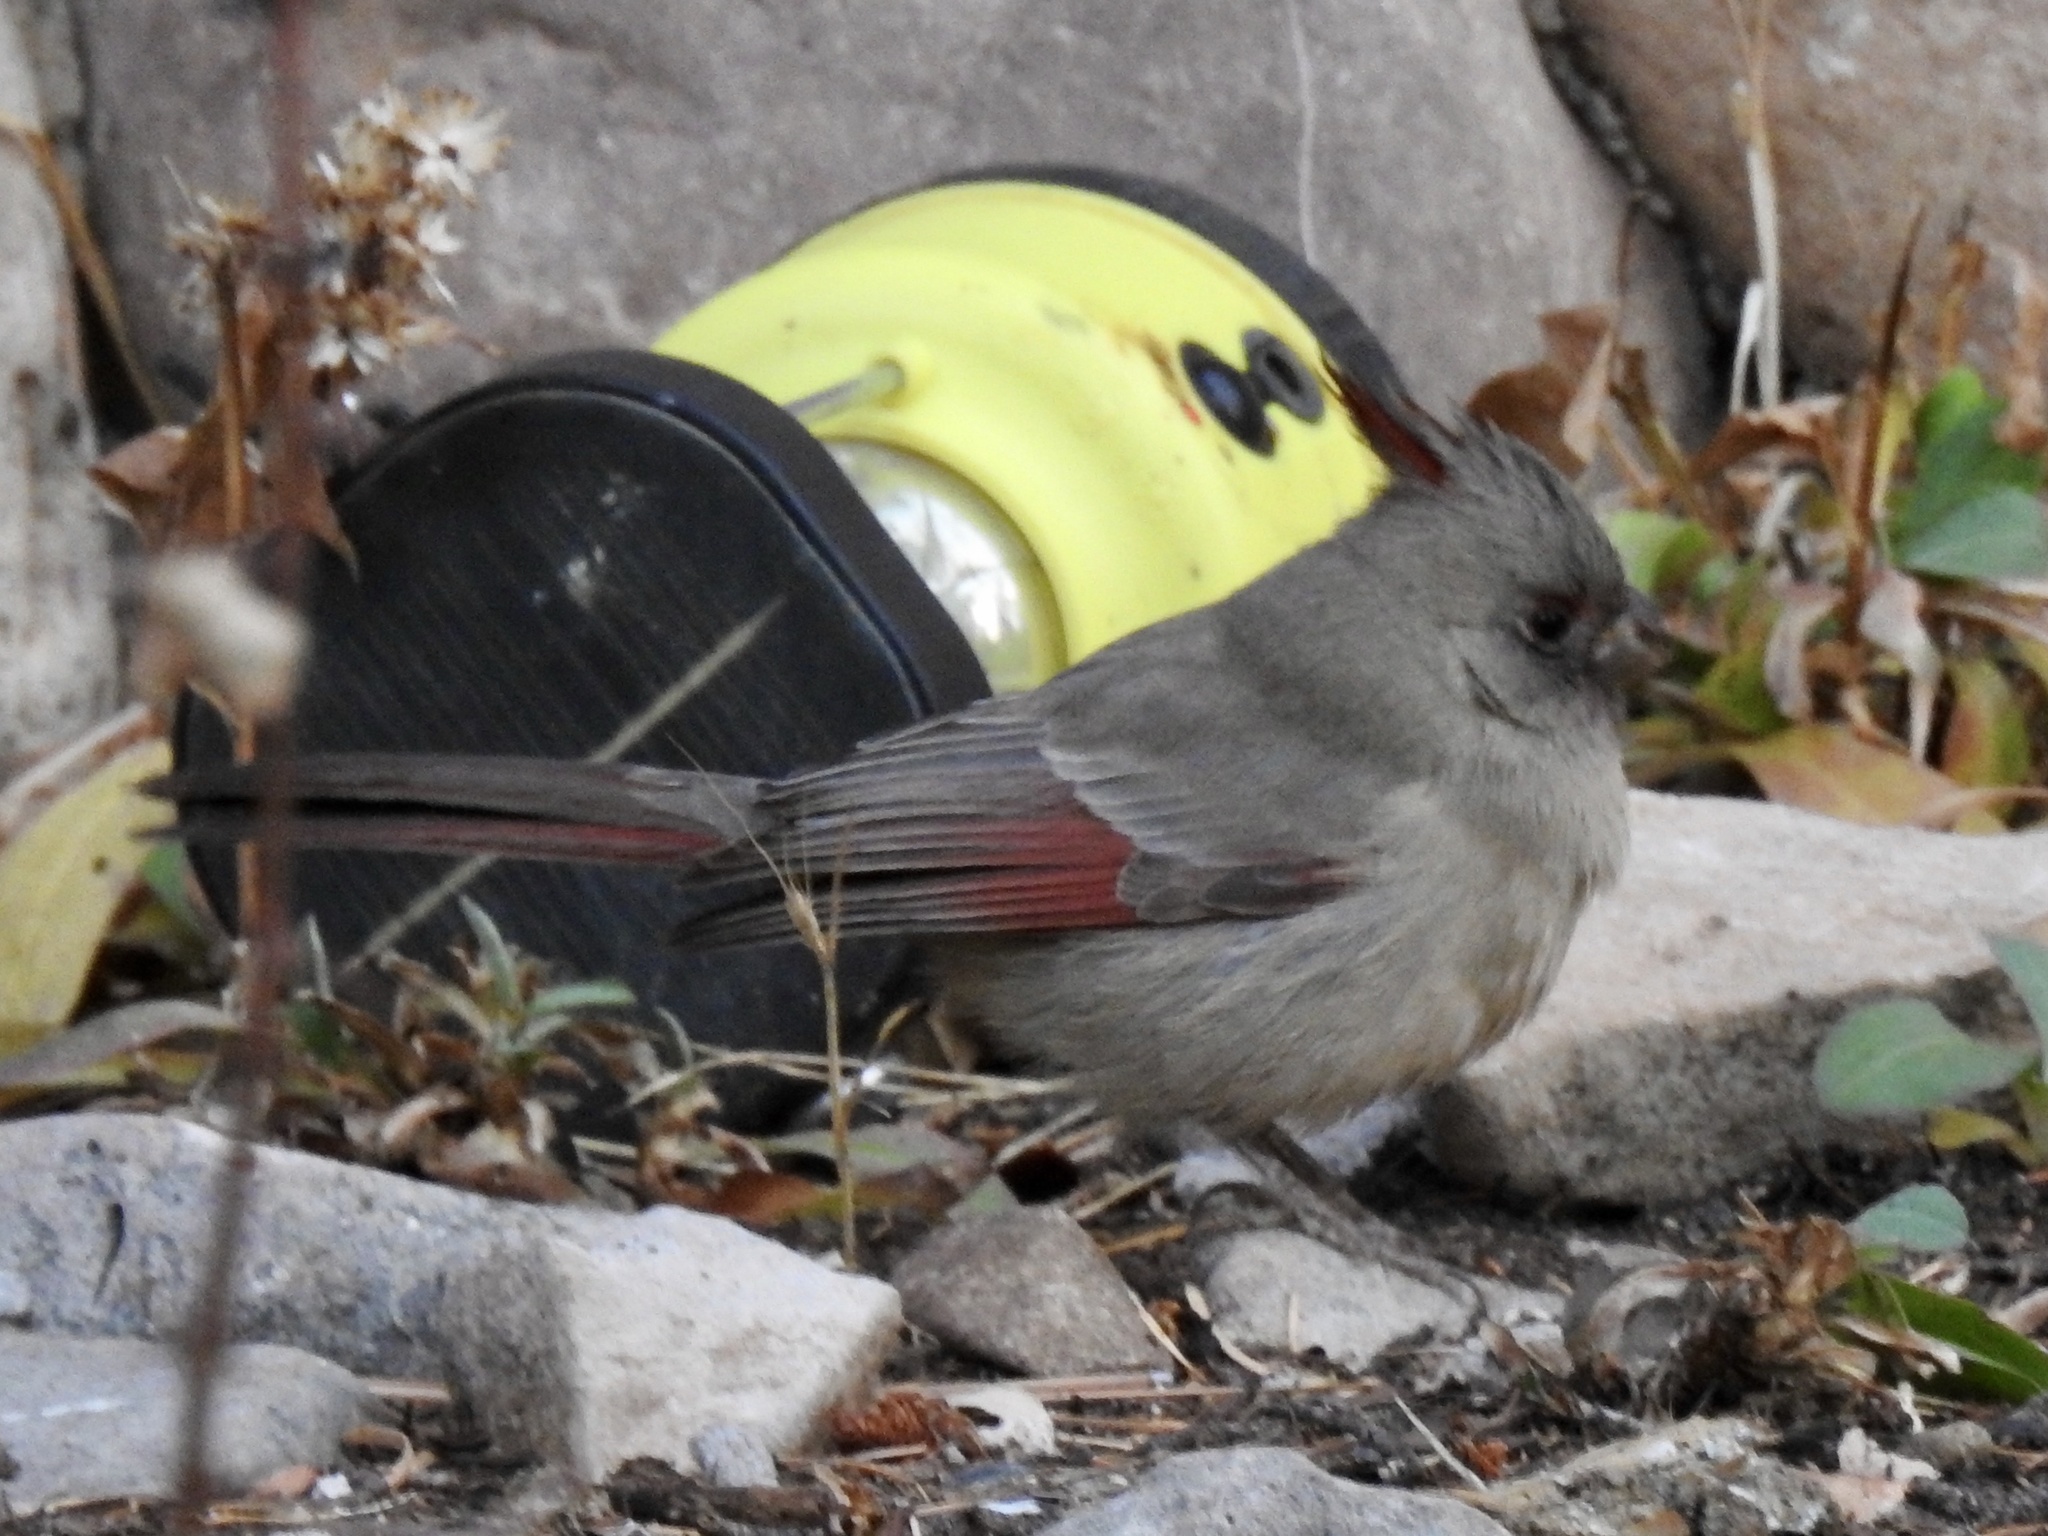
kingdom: Animalia
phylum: Chordata
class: Aves
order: Passeriformes
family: Cardinalidae
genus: Cardinalis
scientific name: Cardinalis sinuatus
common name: Pyrrhuloxia
